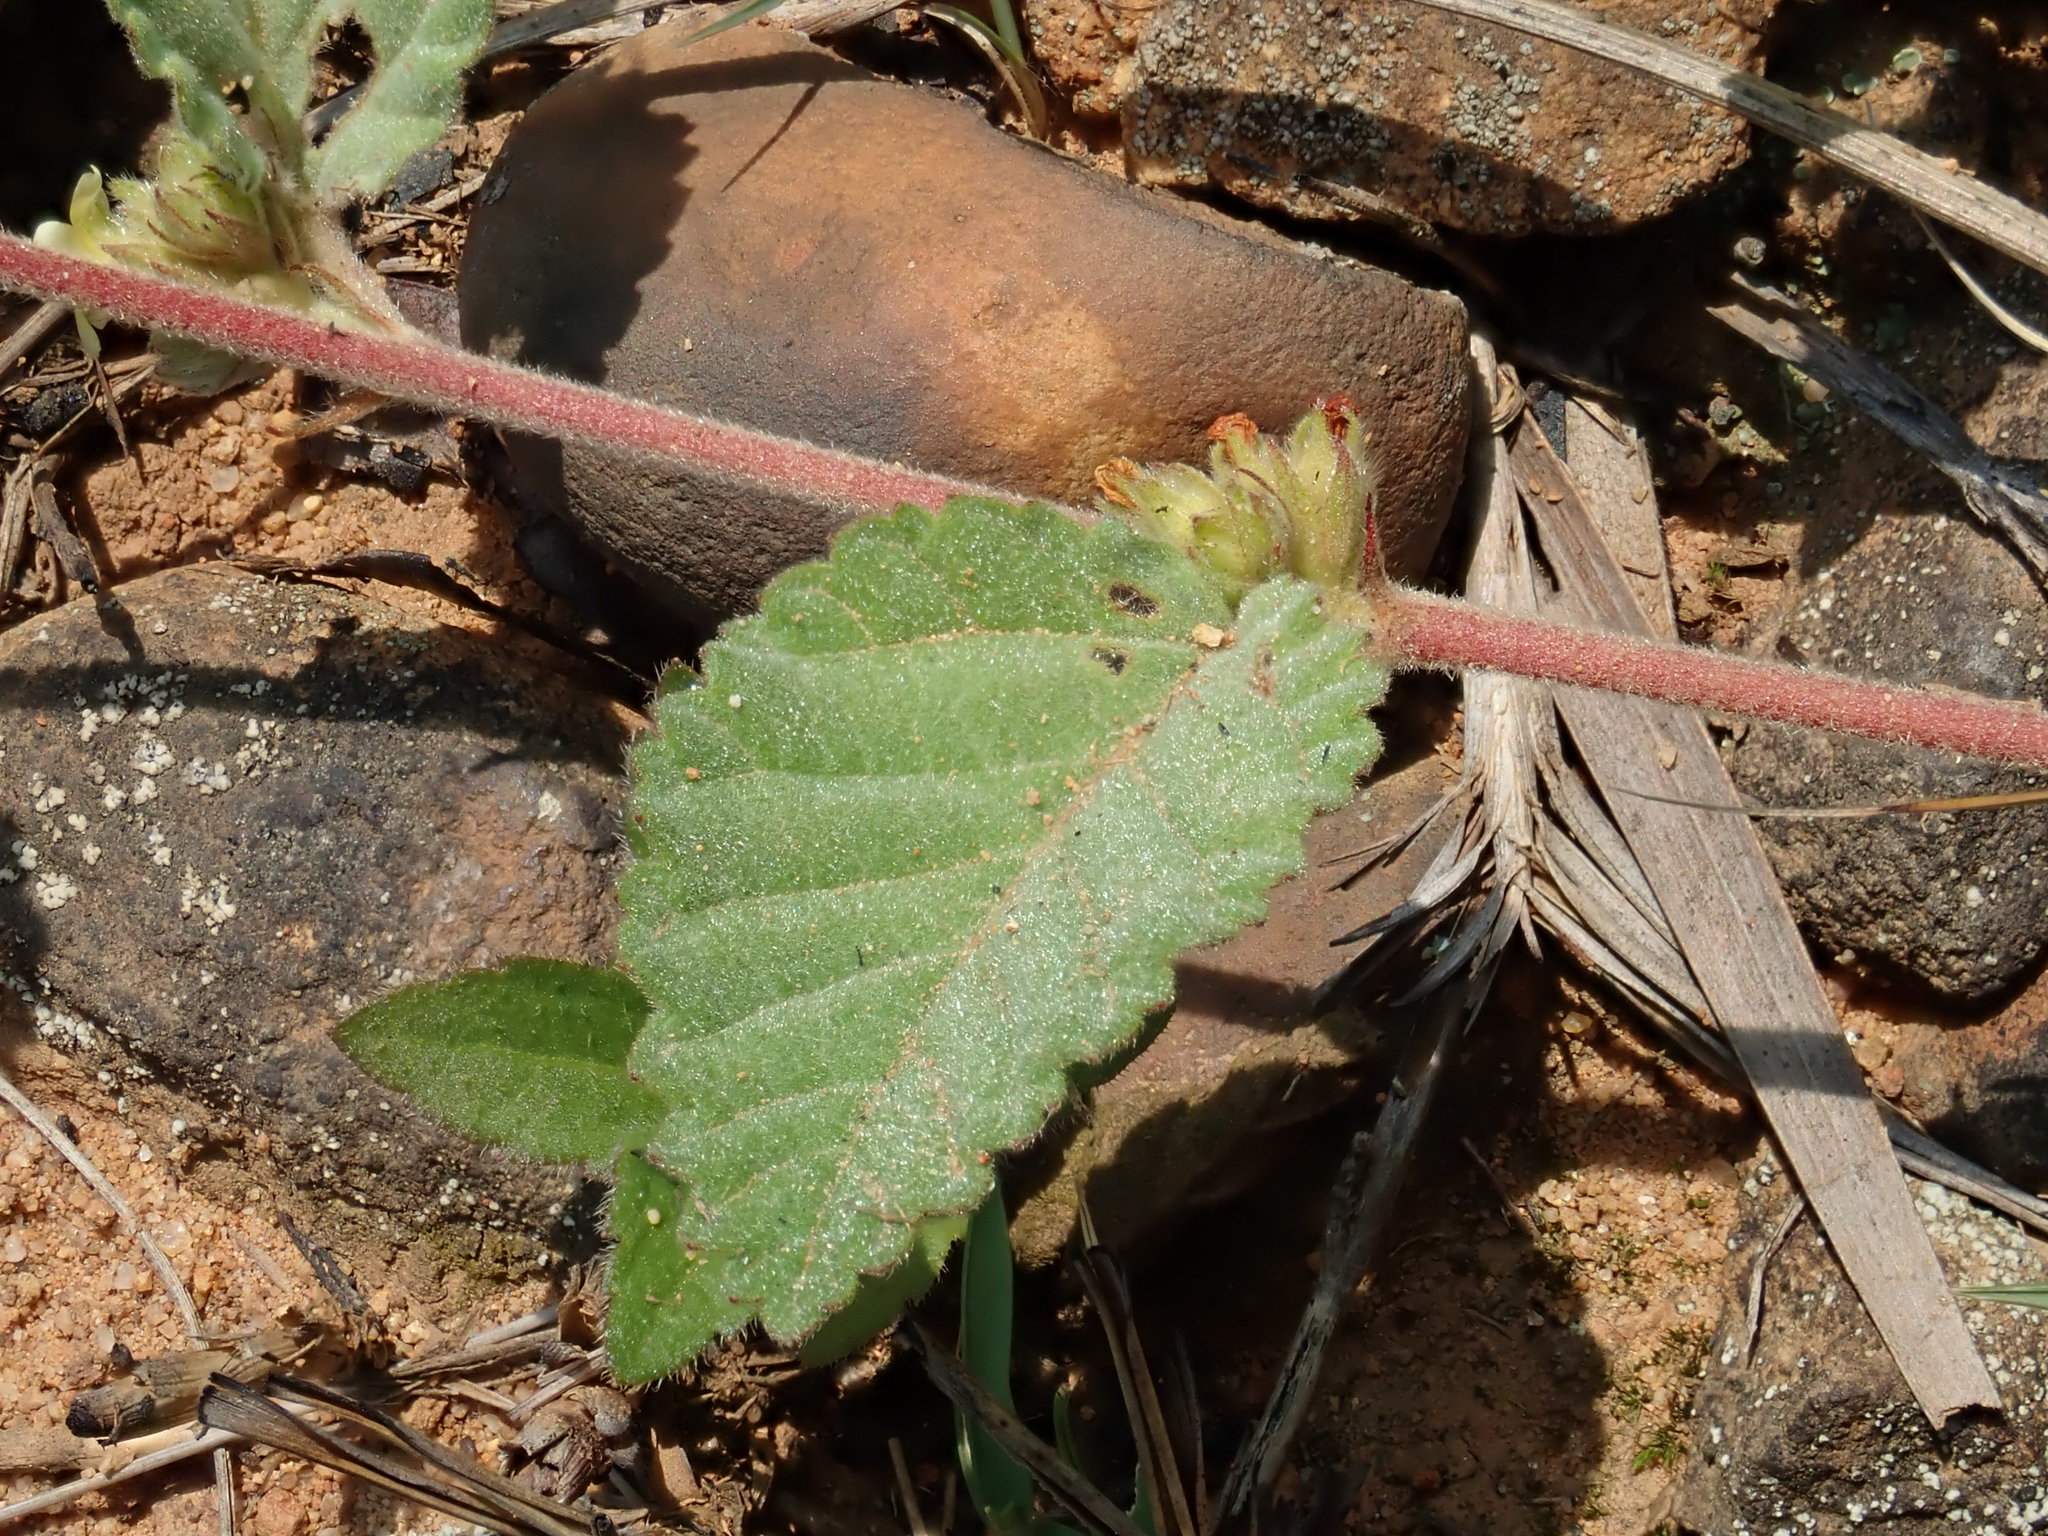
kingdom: Plantae
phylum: Tracheophyta
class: Magnoliopsida
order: Malvales
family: Malvaceae
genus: Waltheria
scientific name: Waltheria indica
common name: Leather-coat
